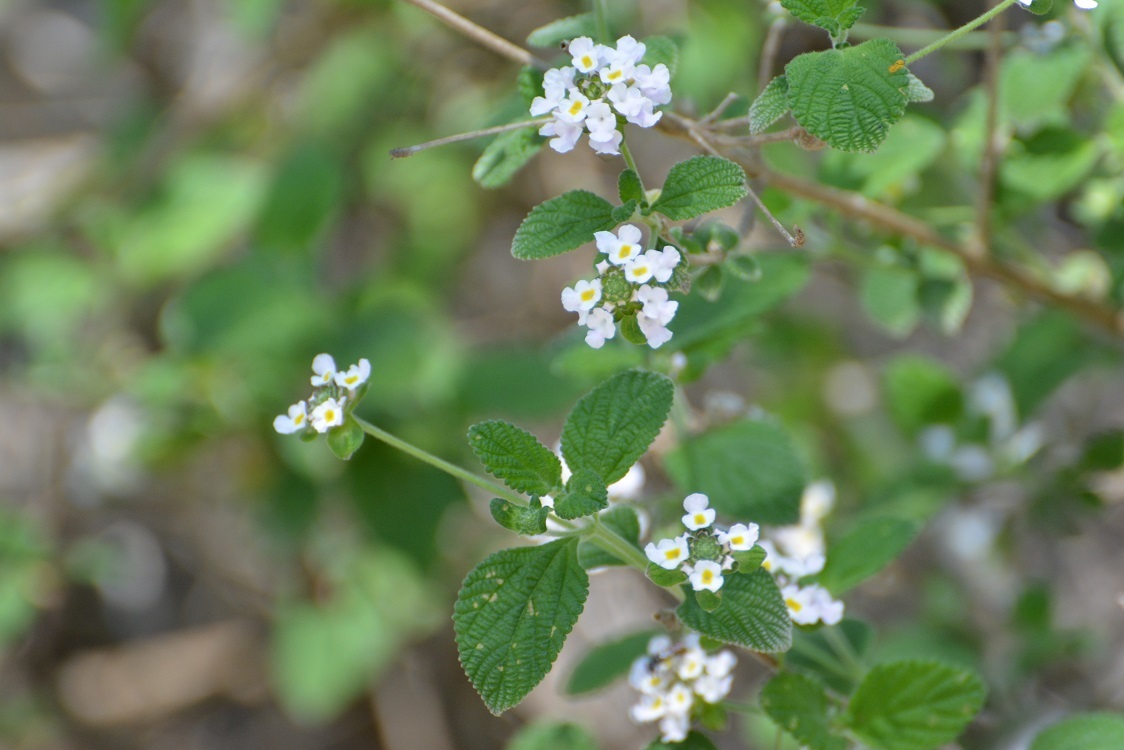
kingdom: Plantae
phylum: Tracheophyta
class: Magnoliopsida
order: Lamiales
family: Verbenaceae
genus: Lantana
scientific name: Lantana hirta
